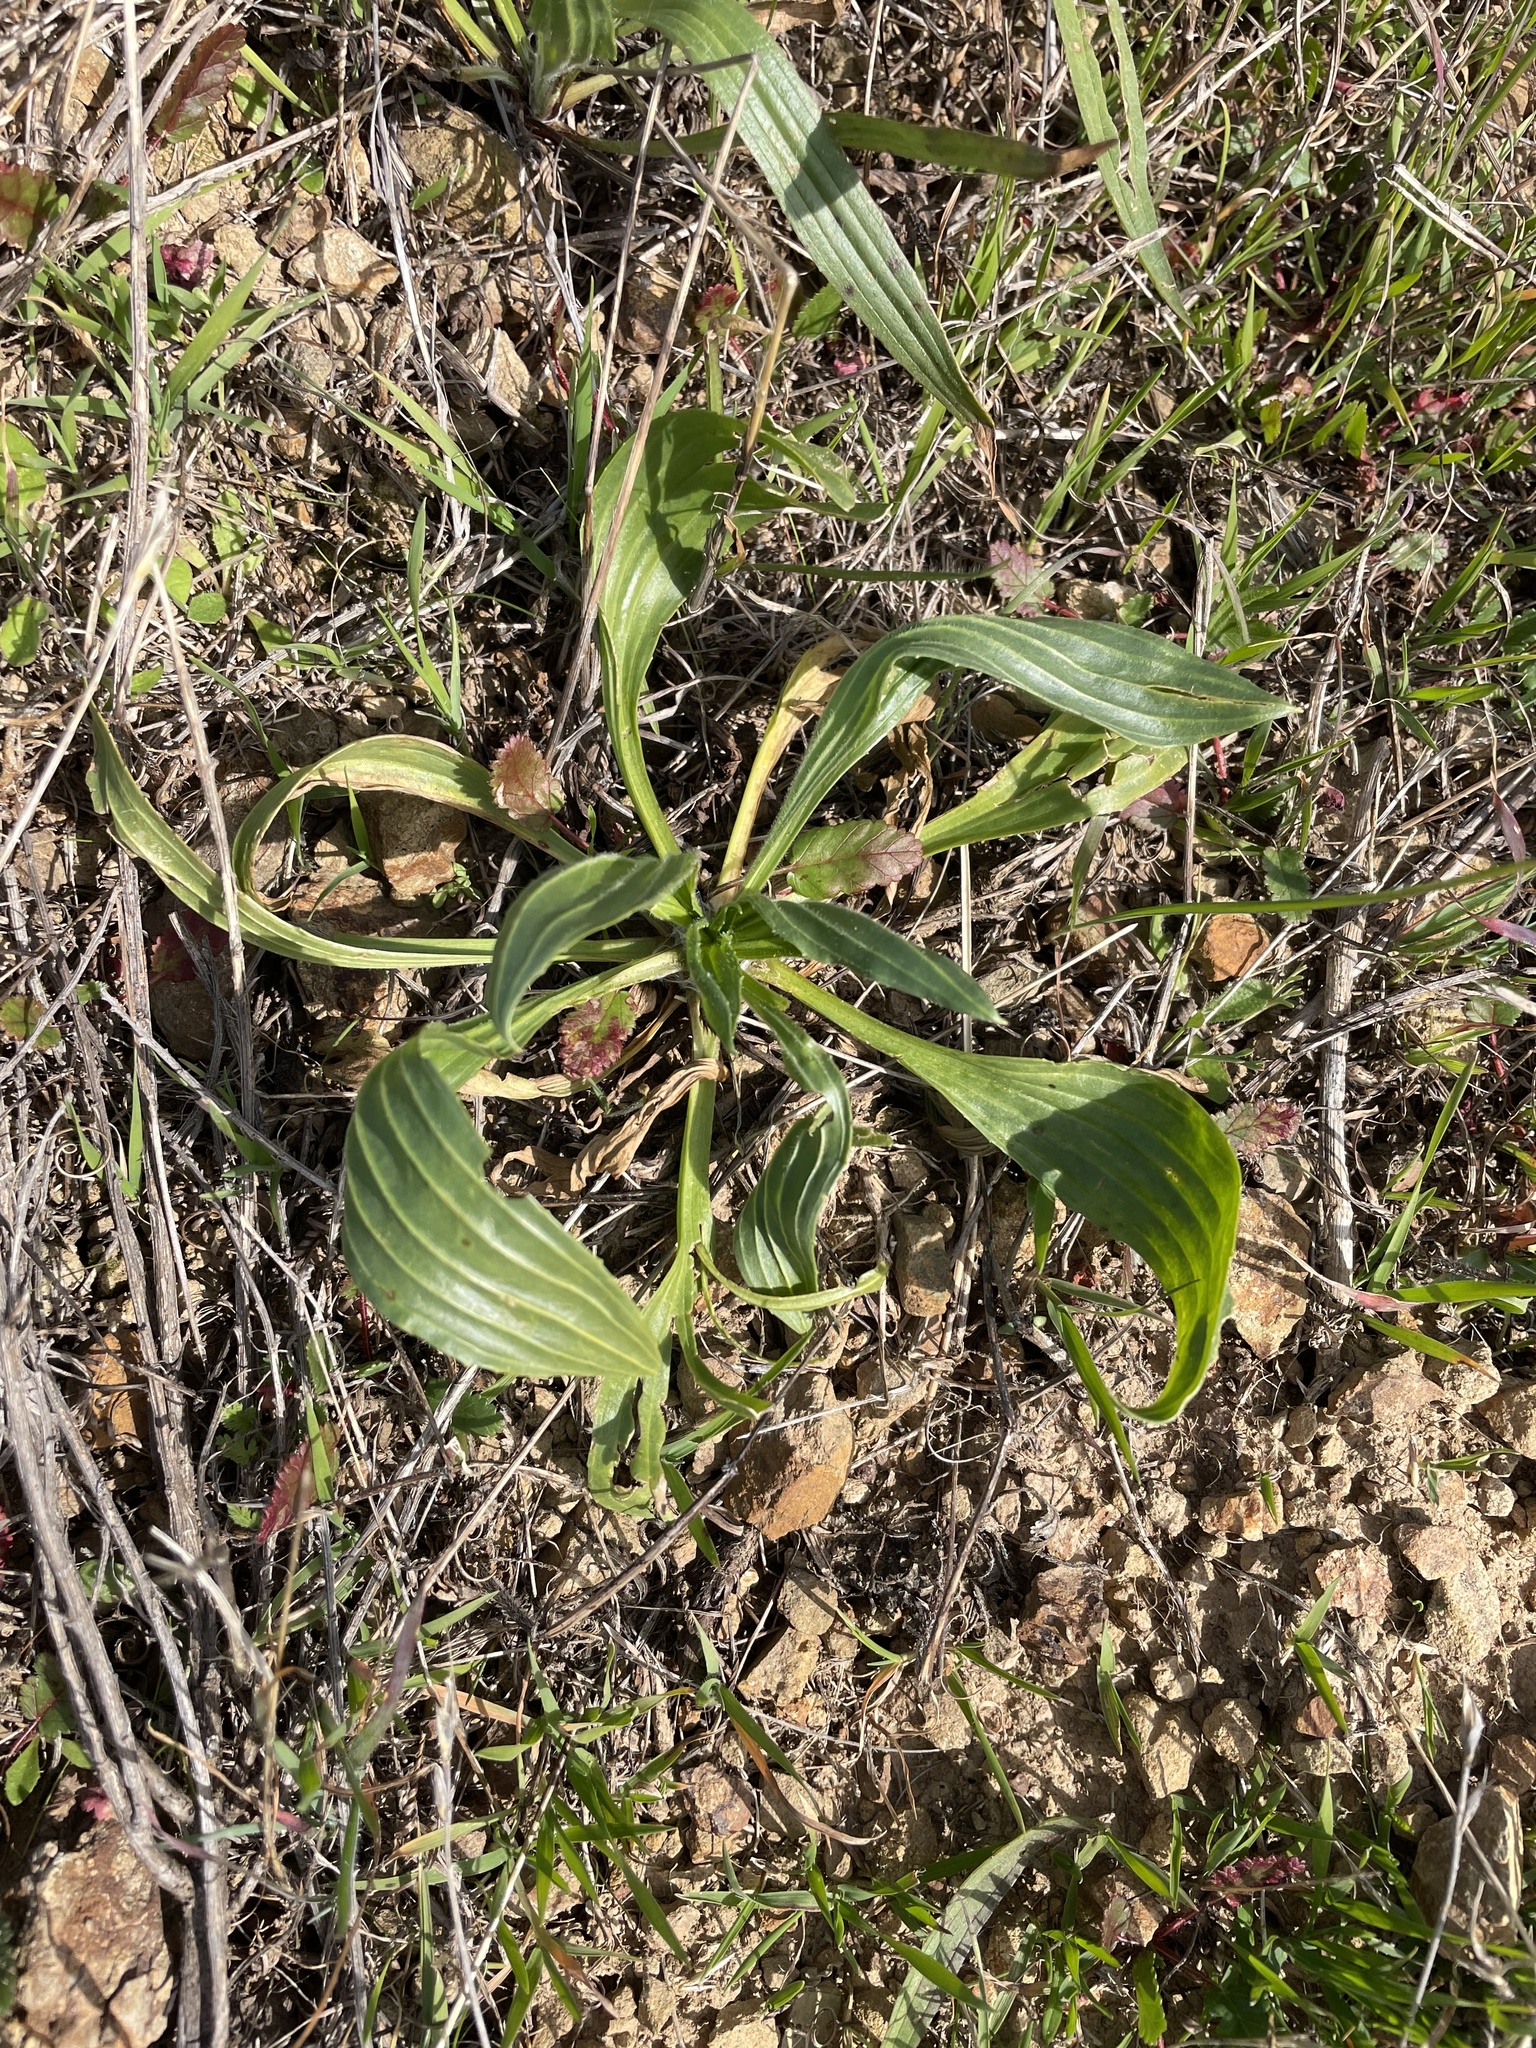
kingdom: Plantae
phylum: Tracheophyta
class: Magnoliopsida
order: Lamiales
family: Plantaginaceae
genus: Plantago
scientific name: Plantago lanceolata
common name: Ribwort plantain
